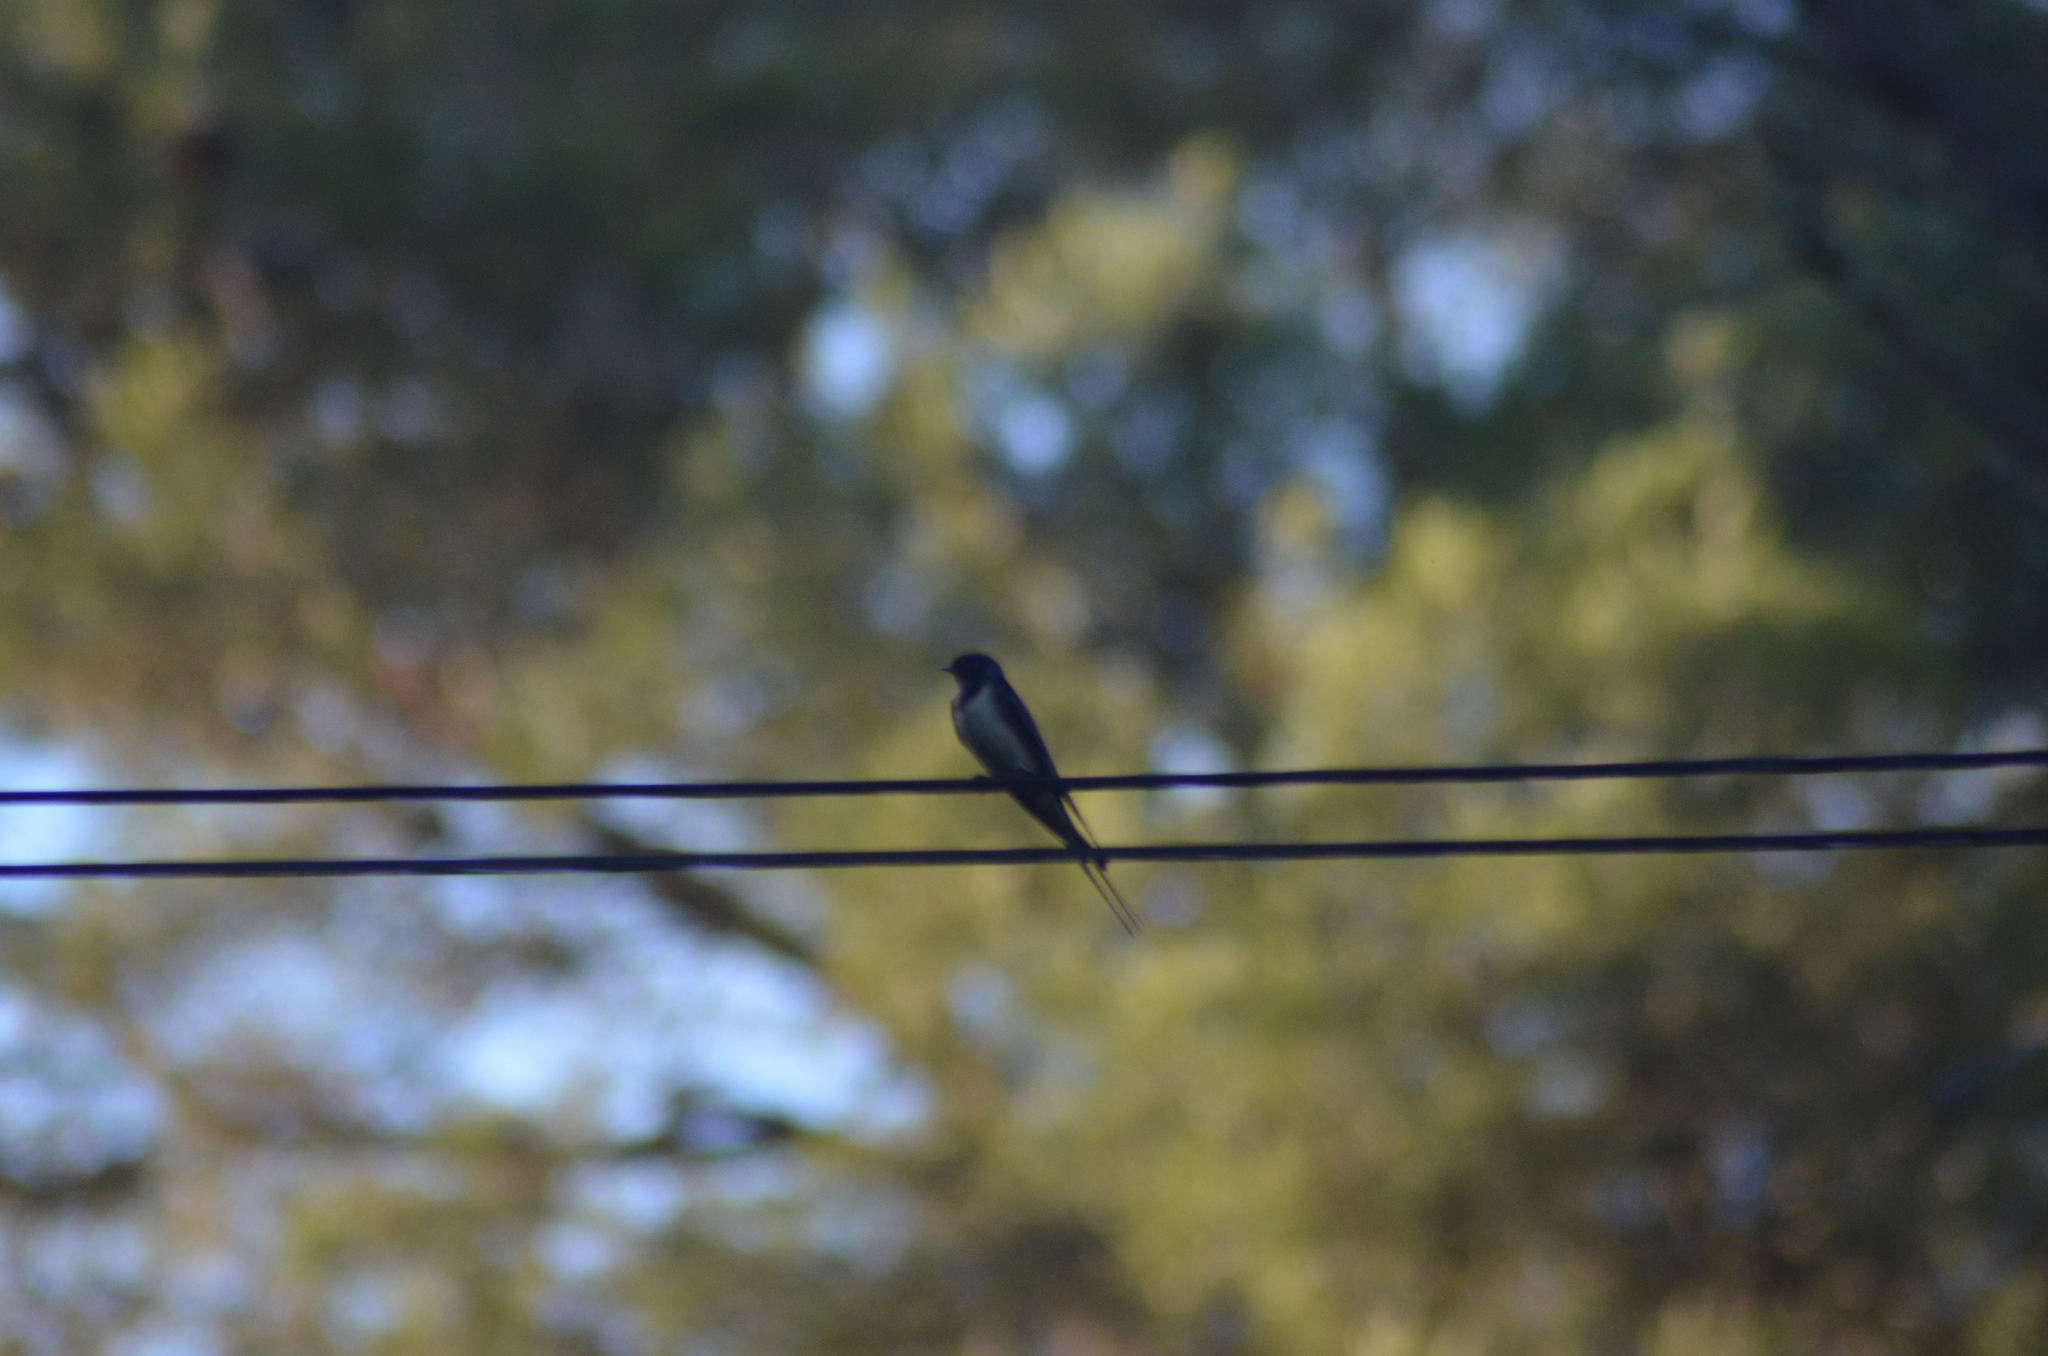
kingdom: Animalia
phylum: Chordata
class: Aves
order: Passeriformes
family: Hirundinidae
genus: Hirundo
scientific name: Hirundo rustica
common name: Barn swallow
